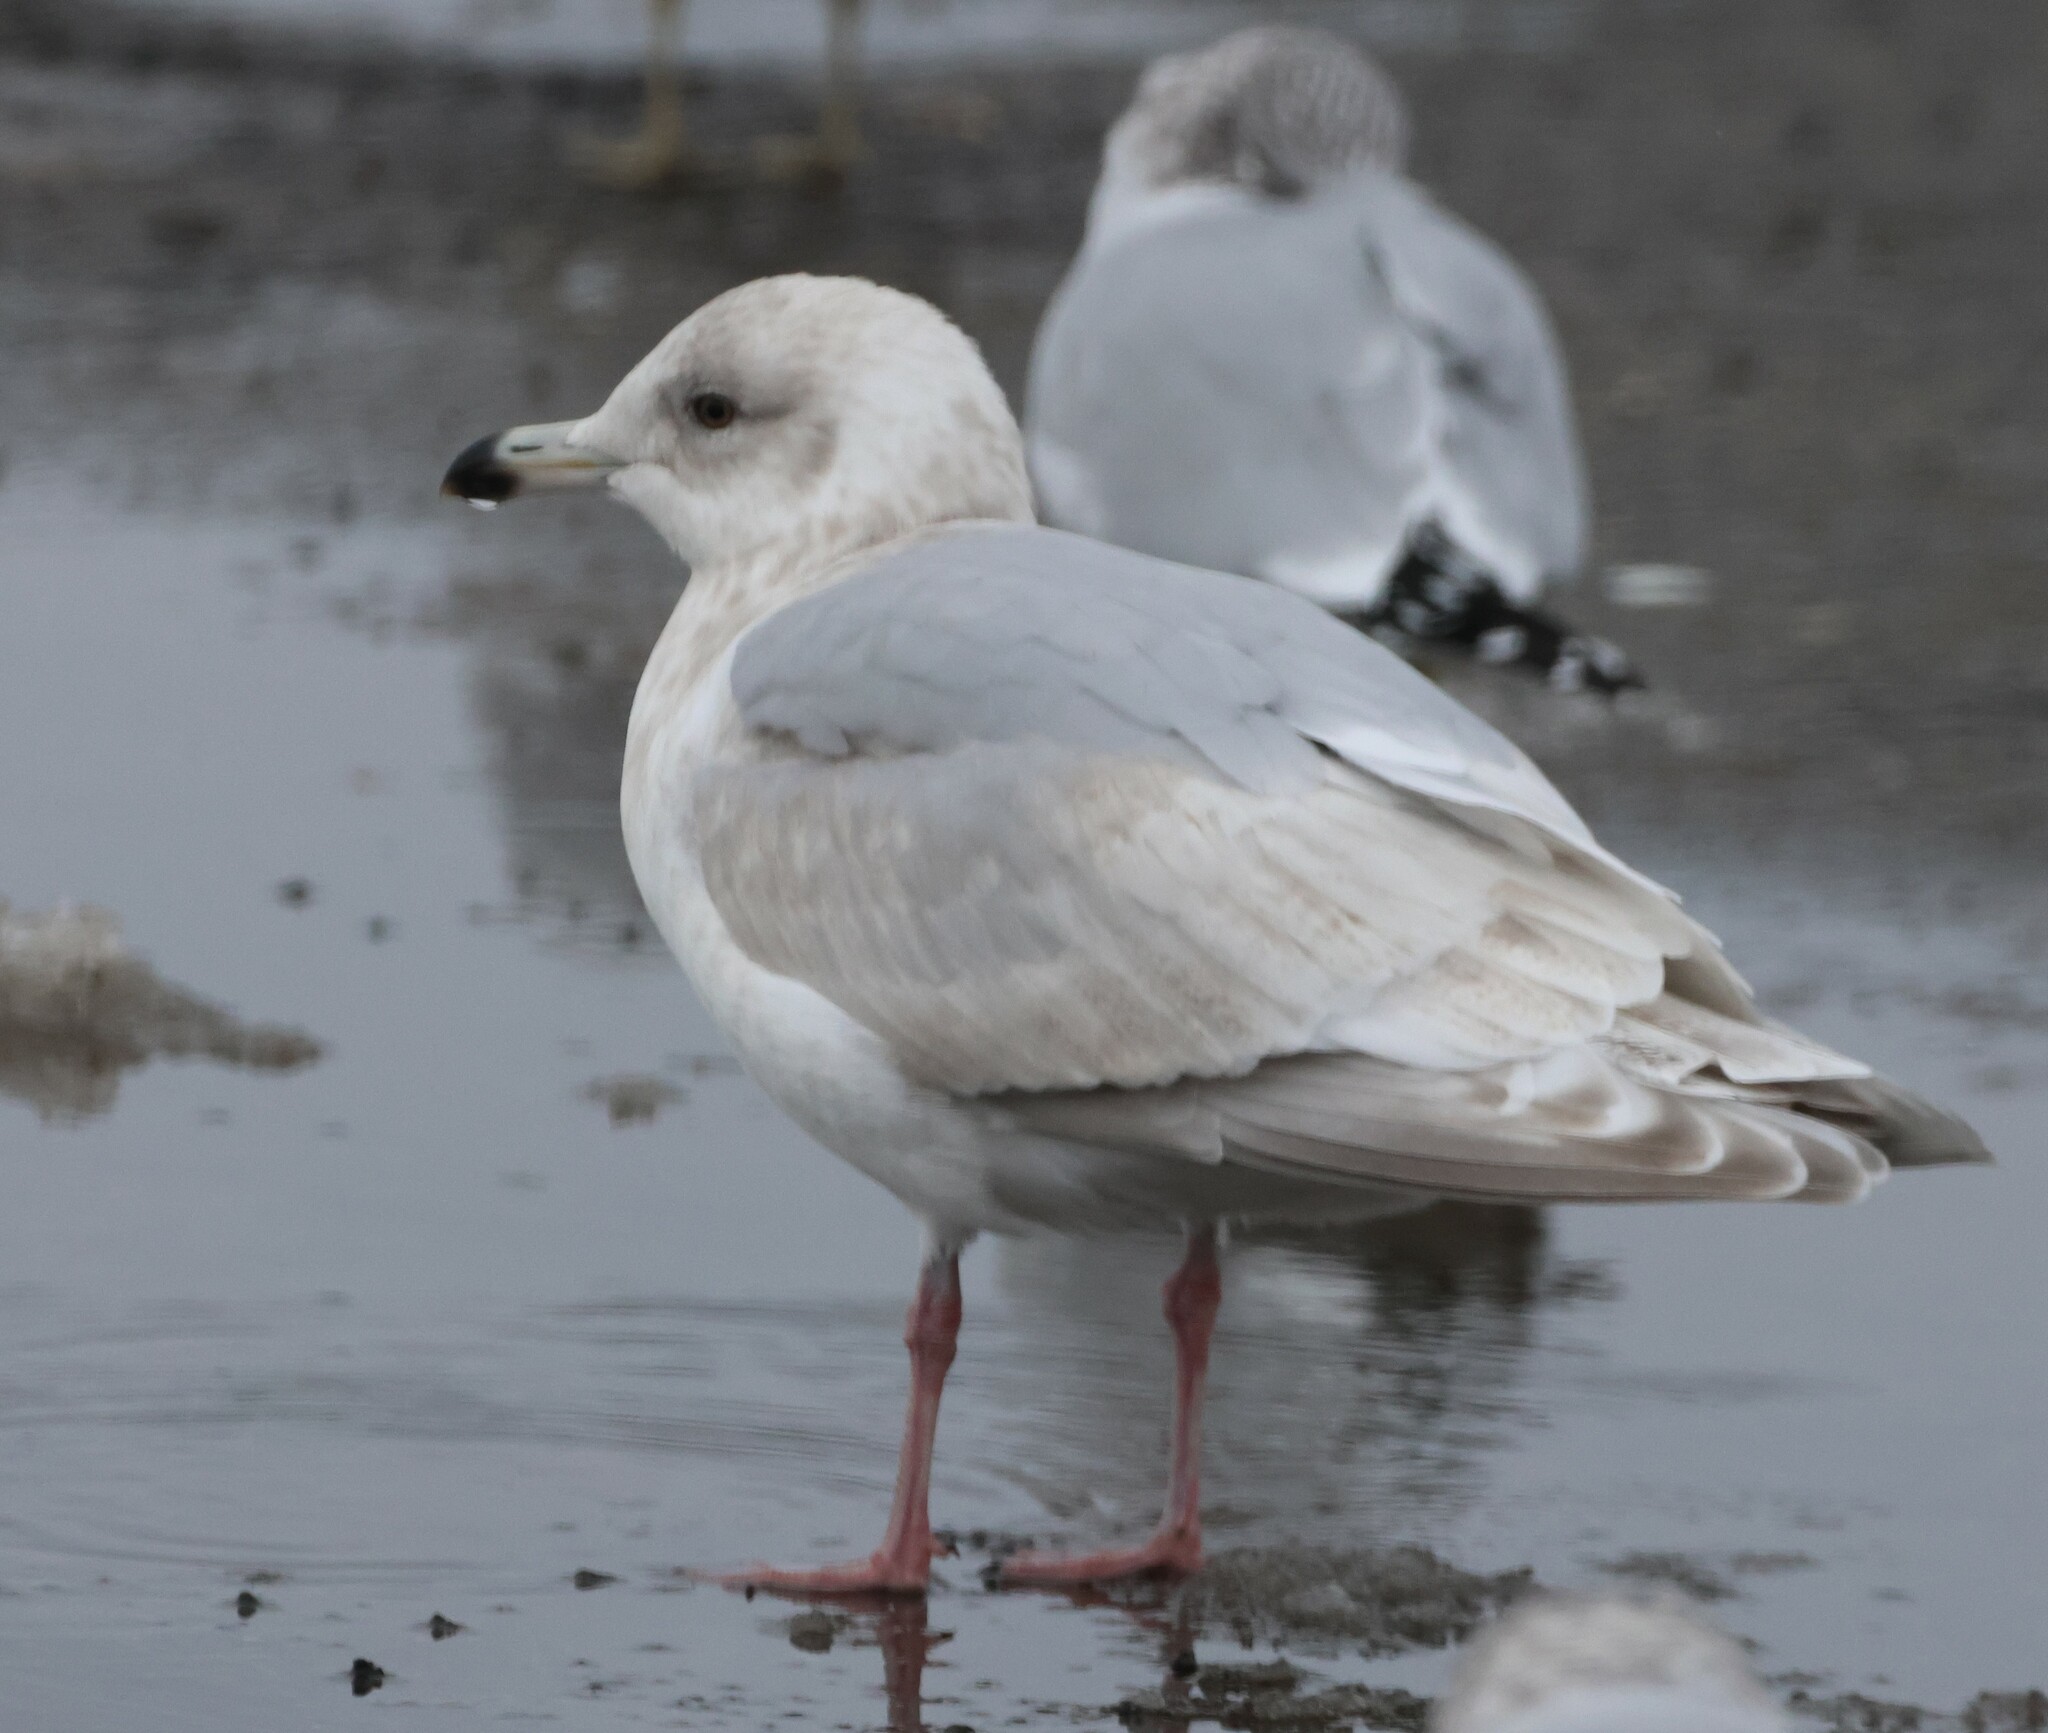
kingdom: Animalia
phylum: Chordata
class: Aves
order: Charadriiformes
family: Laridae
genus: Larus
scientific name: Larus glaucoides
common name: Iceland gull
